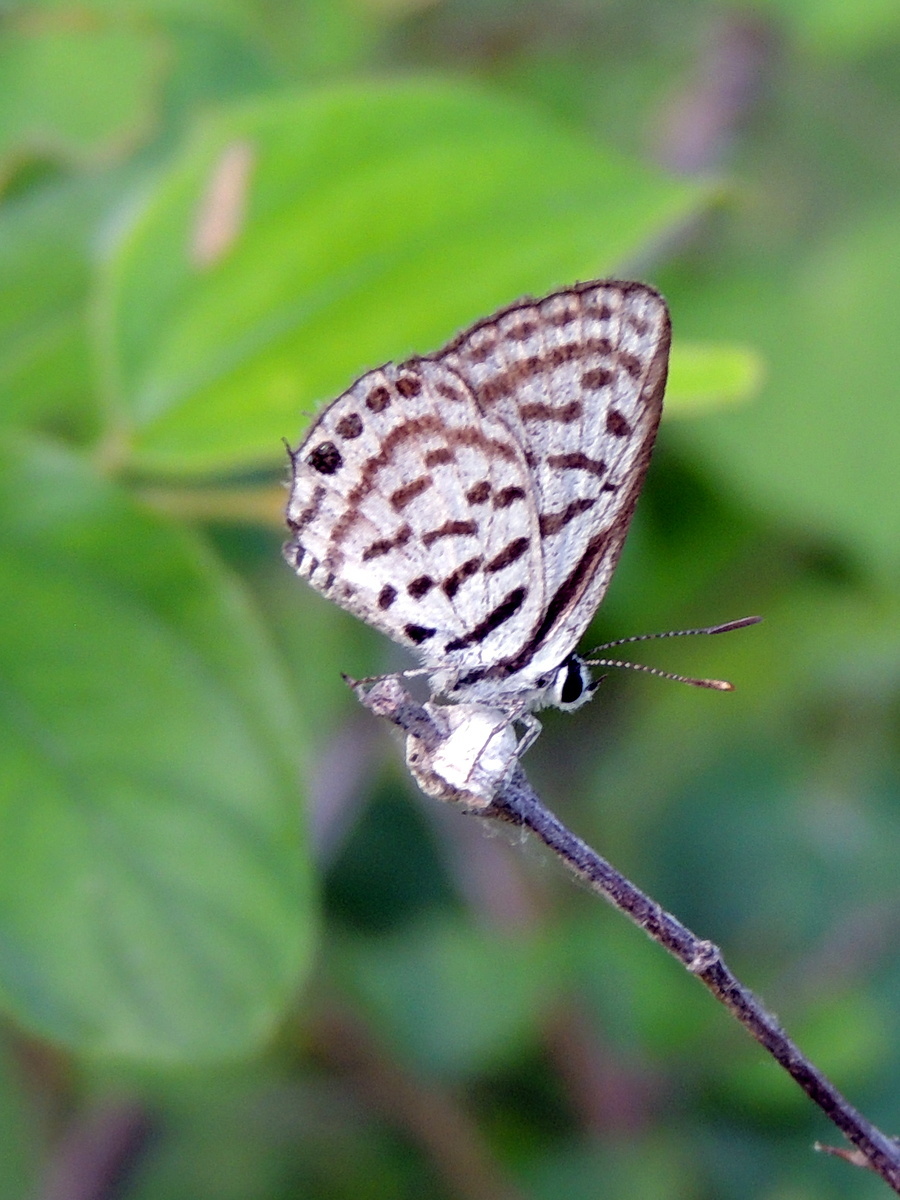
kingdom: Animalia
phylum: Arthropoda
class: Insecta
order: Lepidoptera
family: Lycaenidae
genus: Tarucus
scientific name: Tarucus
